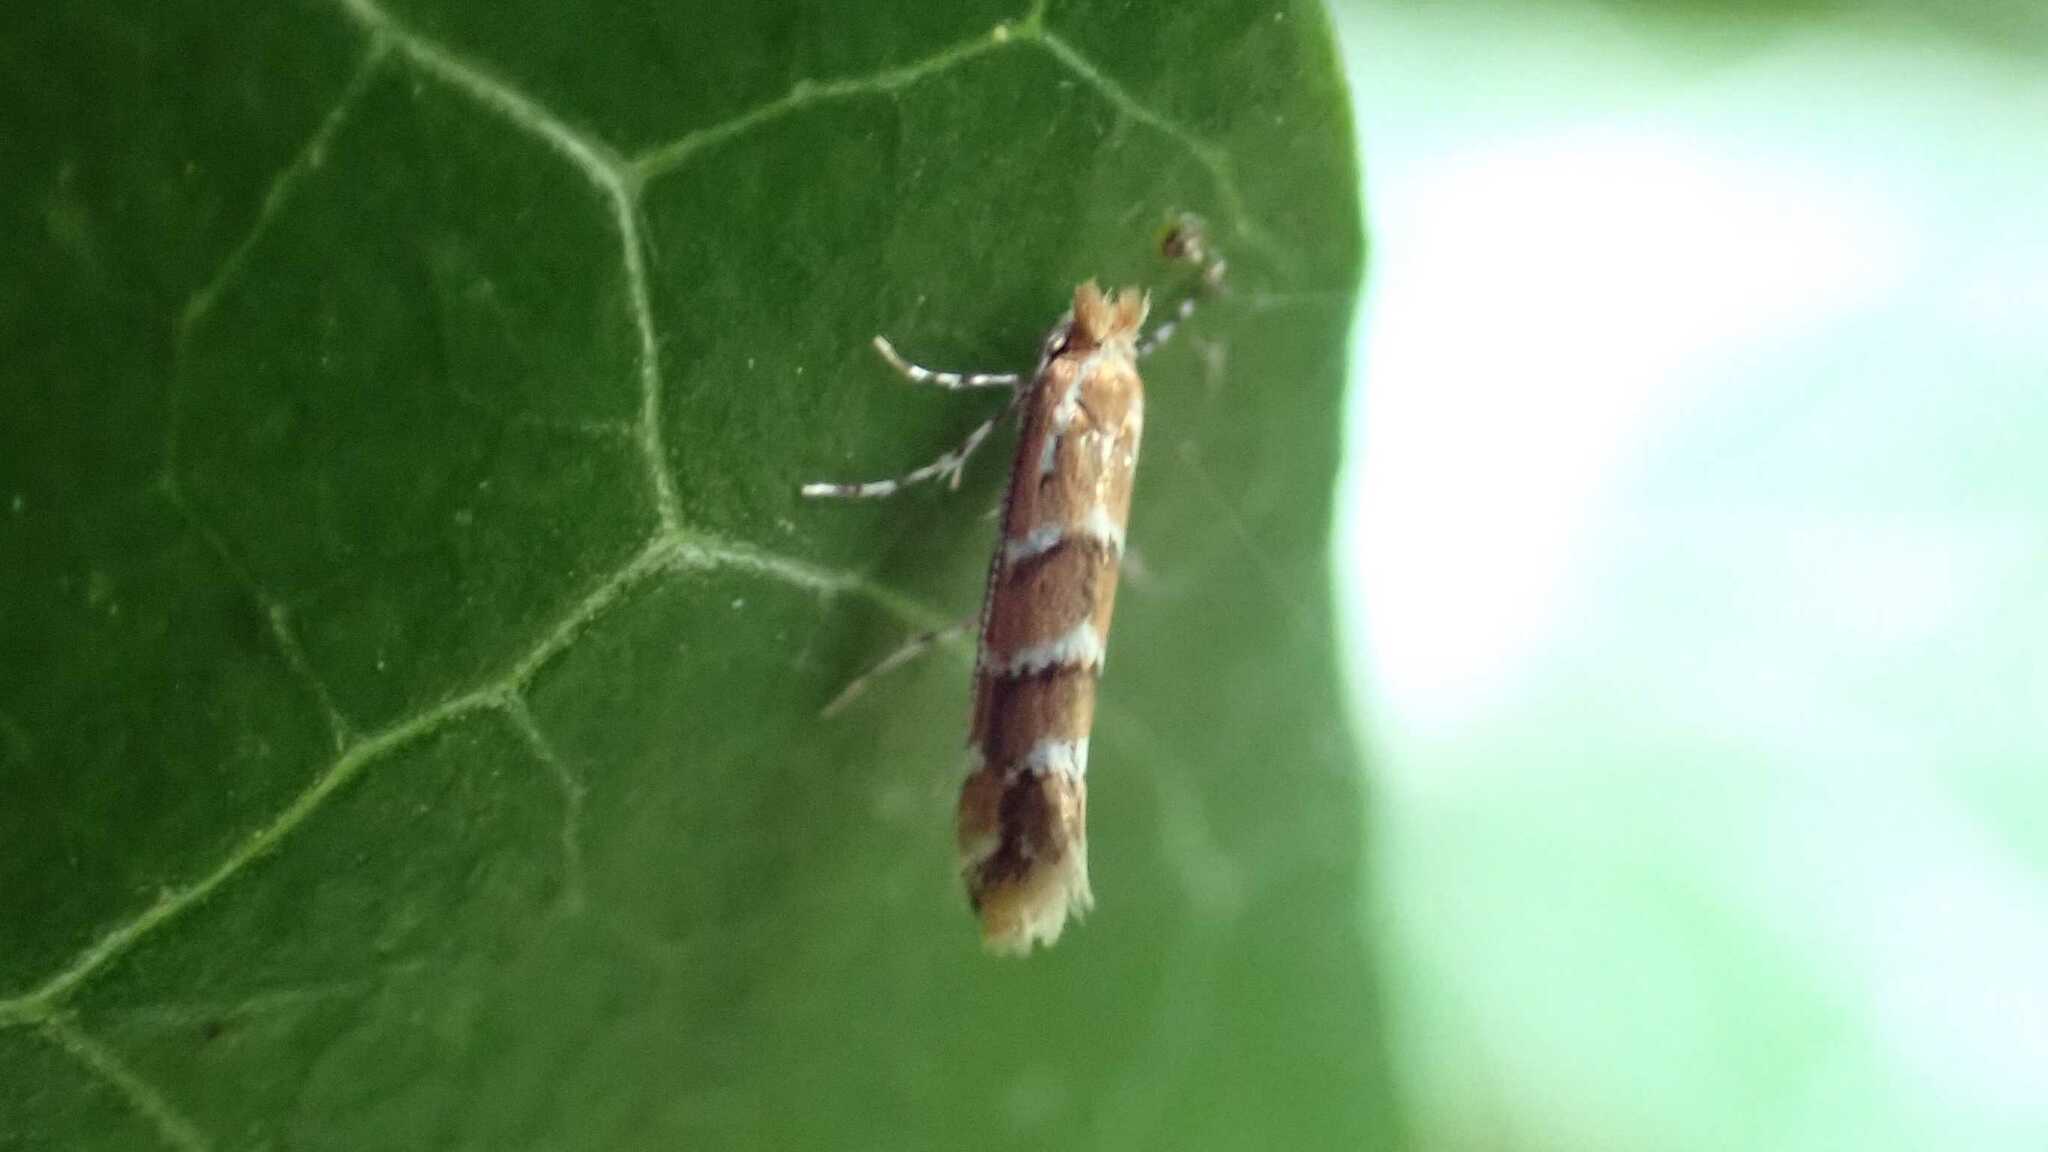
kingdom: Animalia
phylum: Arthropoda
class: Insecta
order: Lepidoptera
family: Gracillariidae
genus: Cameraria
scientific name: Cameraria ohridella
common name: Horse-chestnut leaf-miner
